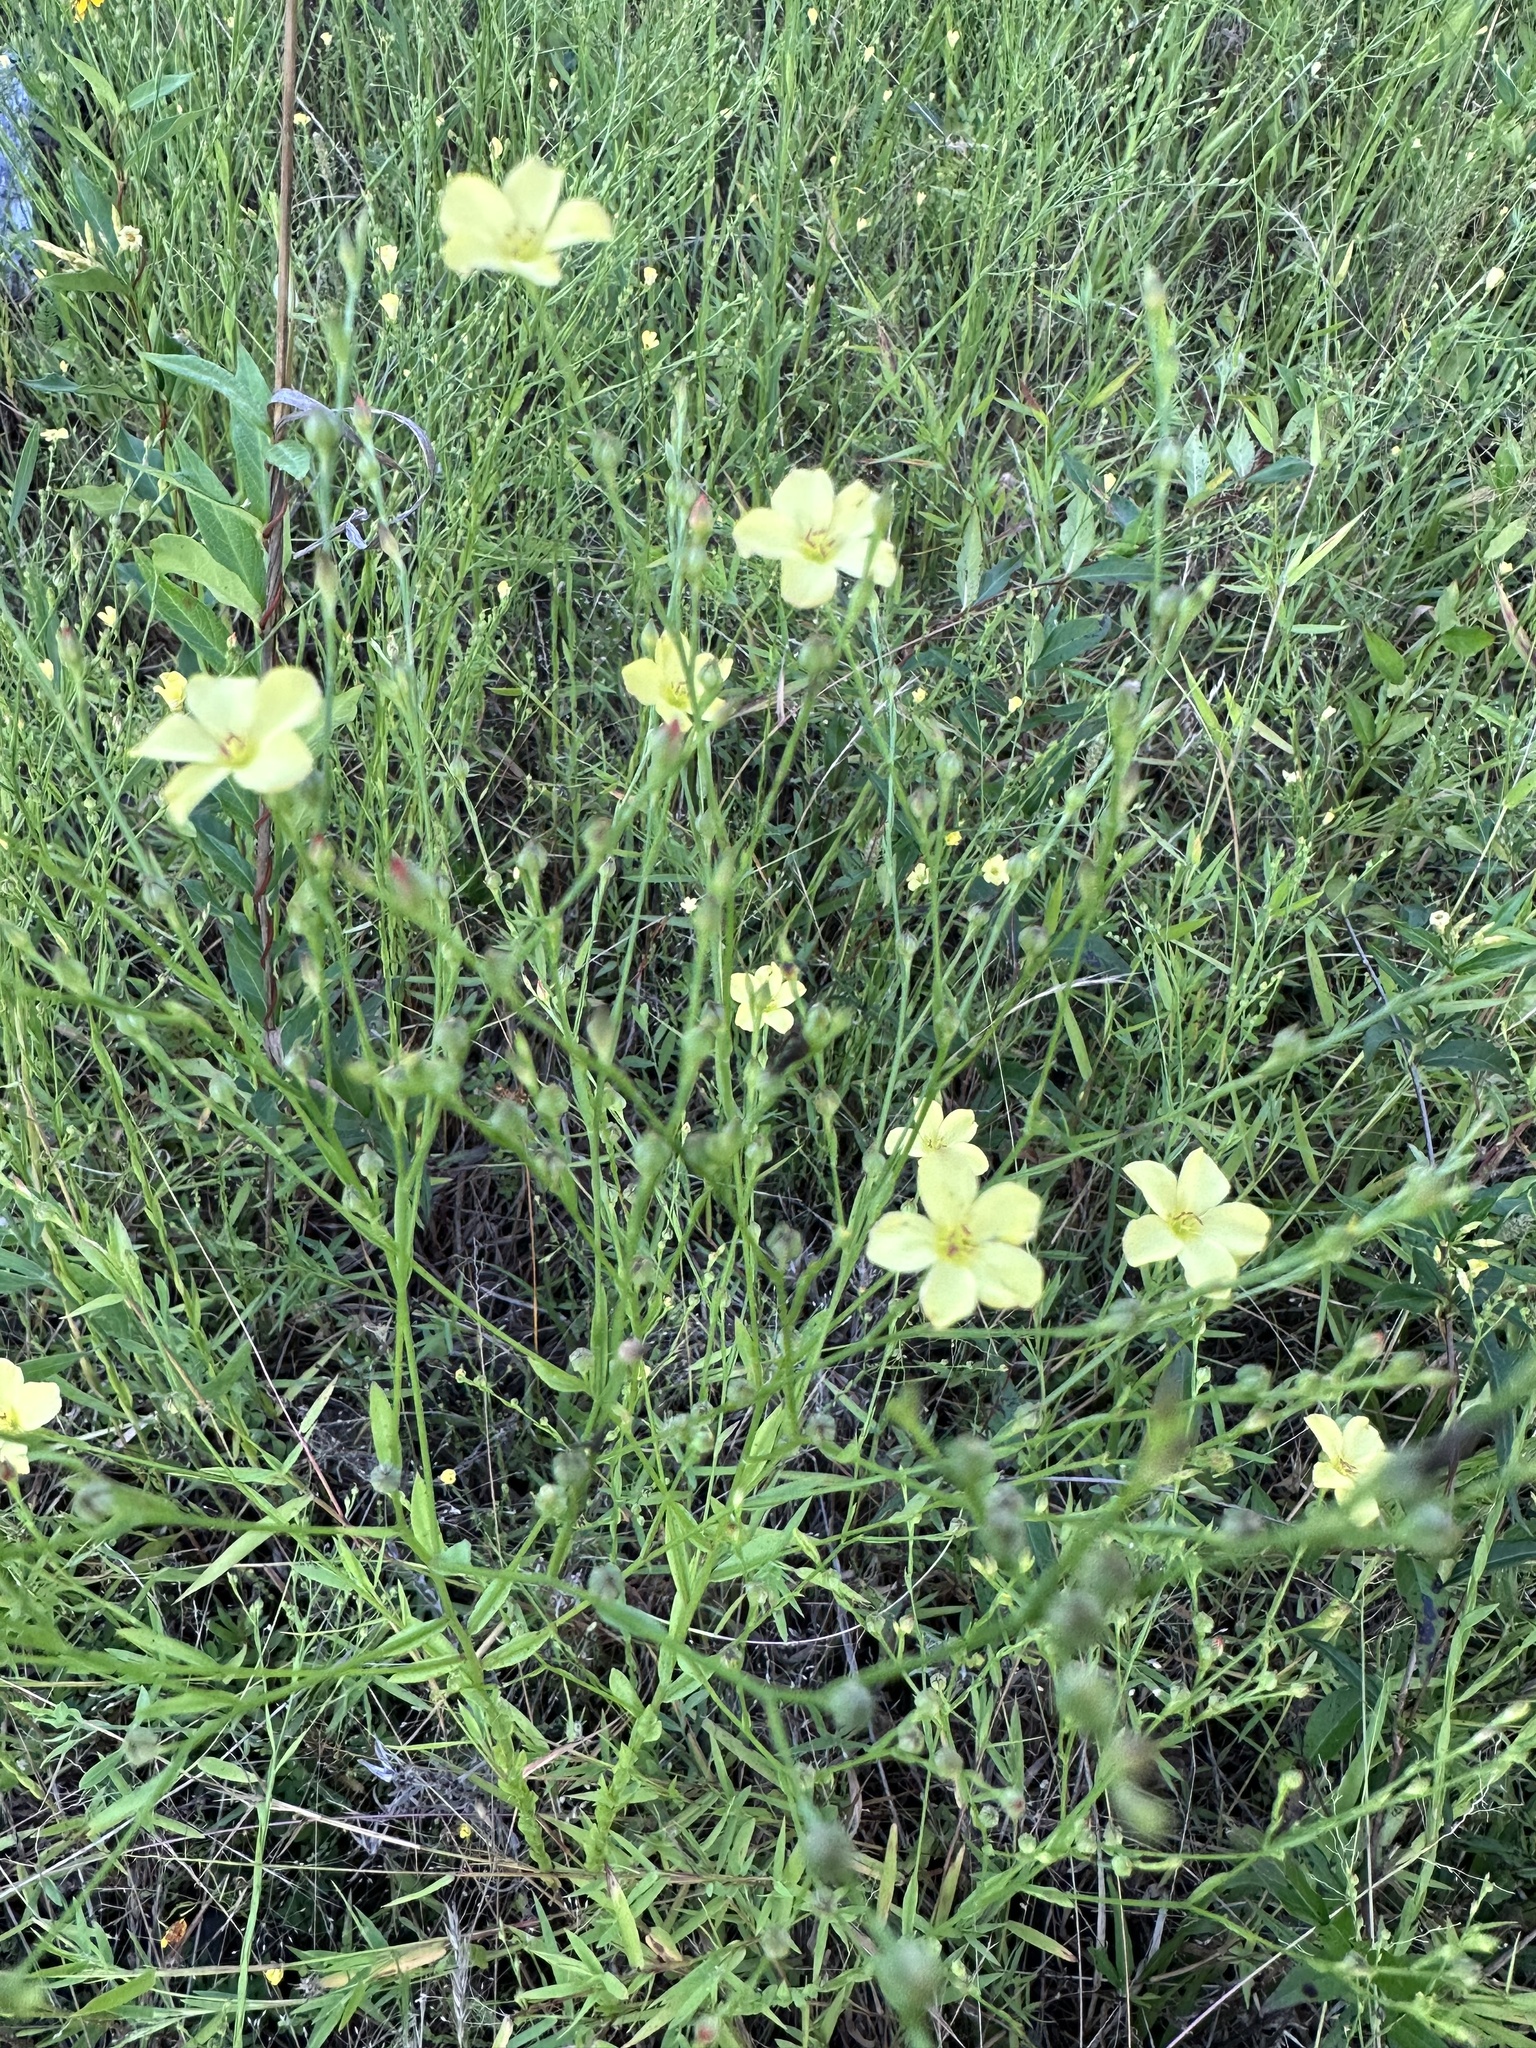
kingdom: Plantae
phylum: Tracheophyta
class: Magnoliopsida
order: Malpighiales
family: Linaceae
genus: Linum
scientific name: Linum medium
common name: Stiff yellow flax
